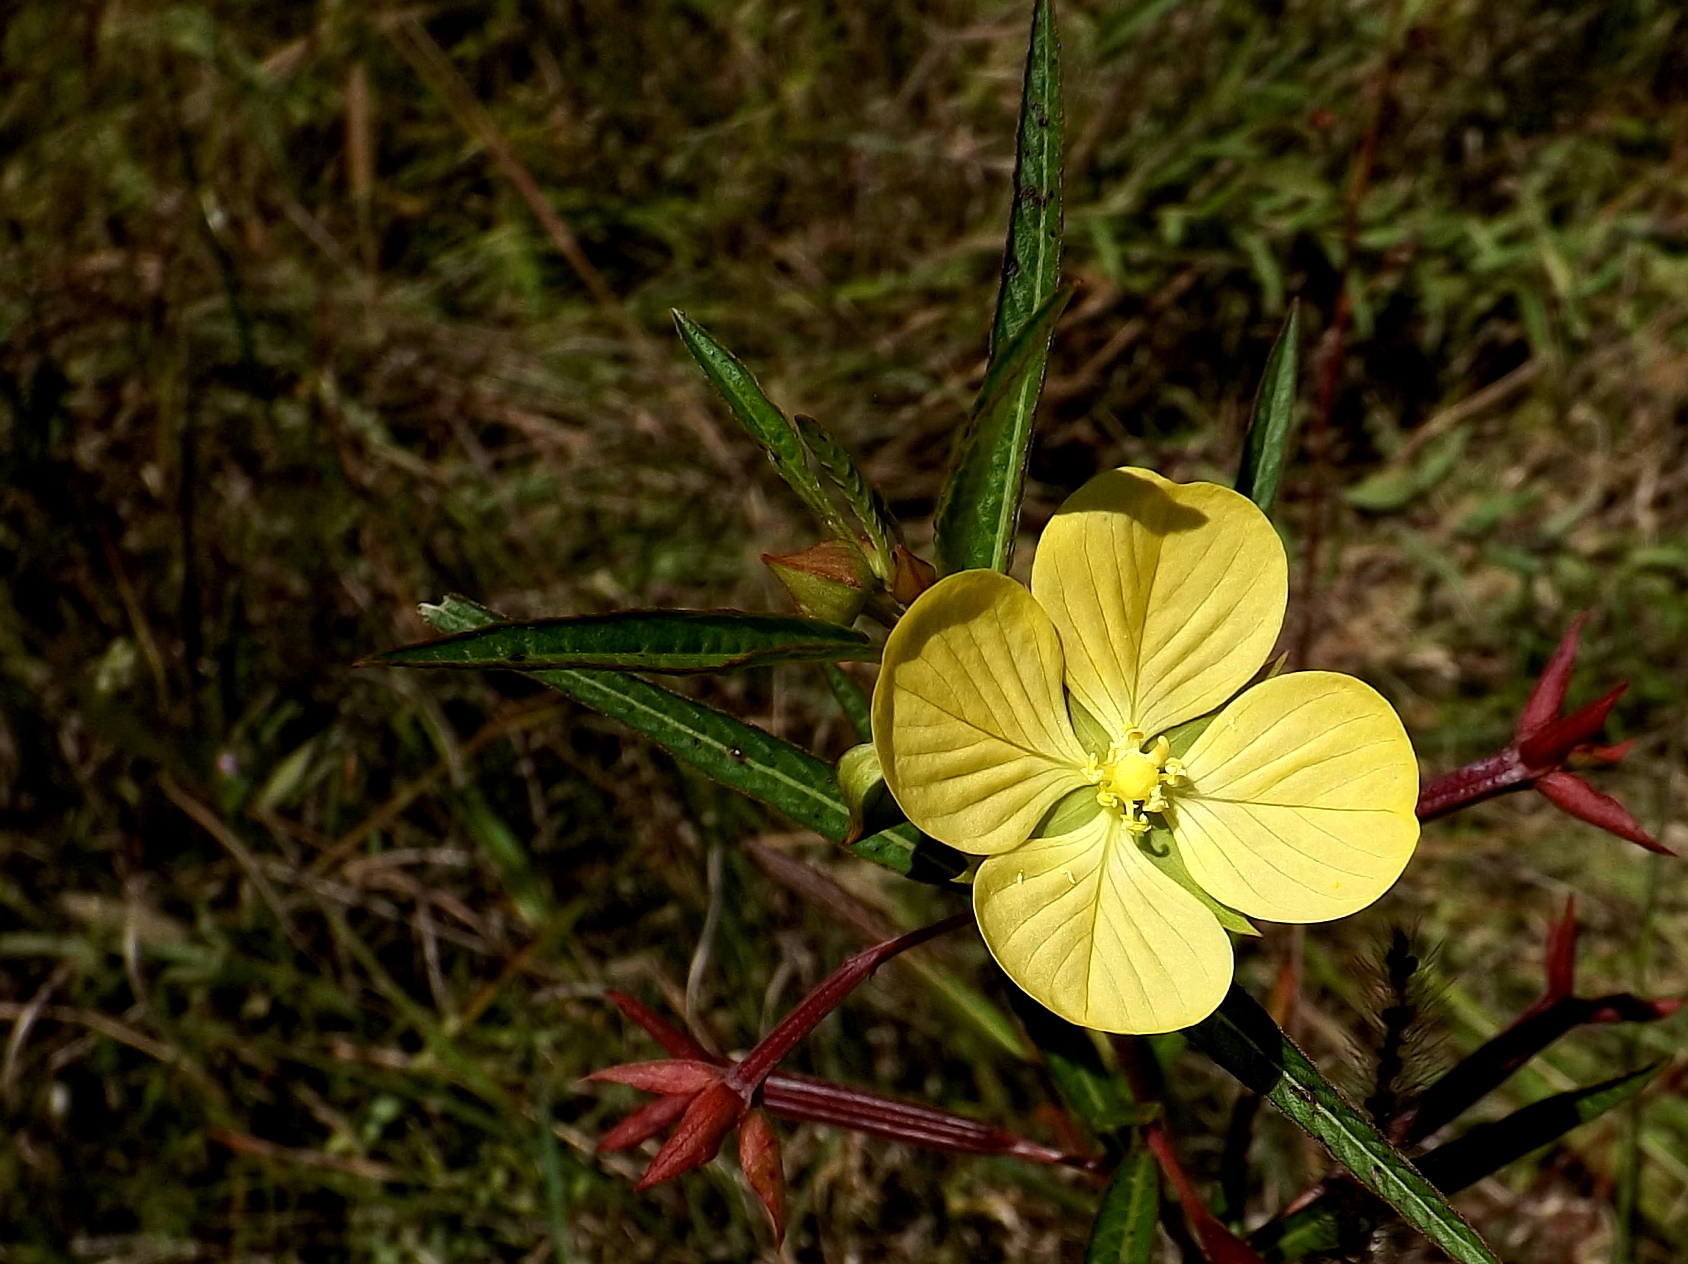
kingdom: Plantae
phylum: Tracheophyta
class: Magnoliopsida
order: Myrtales
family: Onagraceae
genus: Ludwigia
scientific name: Ludwigia octovalvis
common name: Water-primrose
